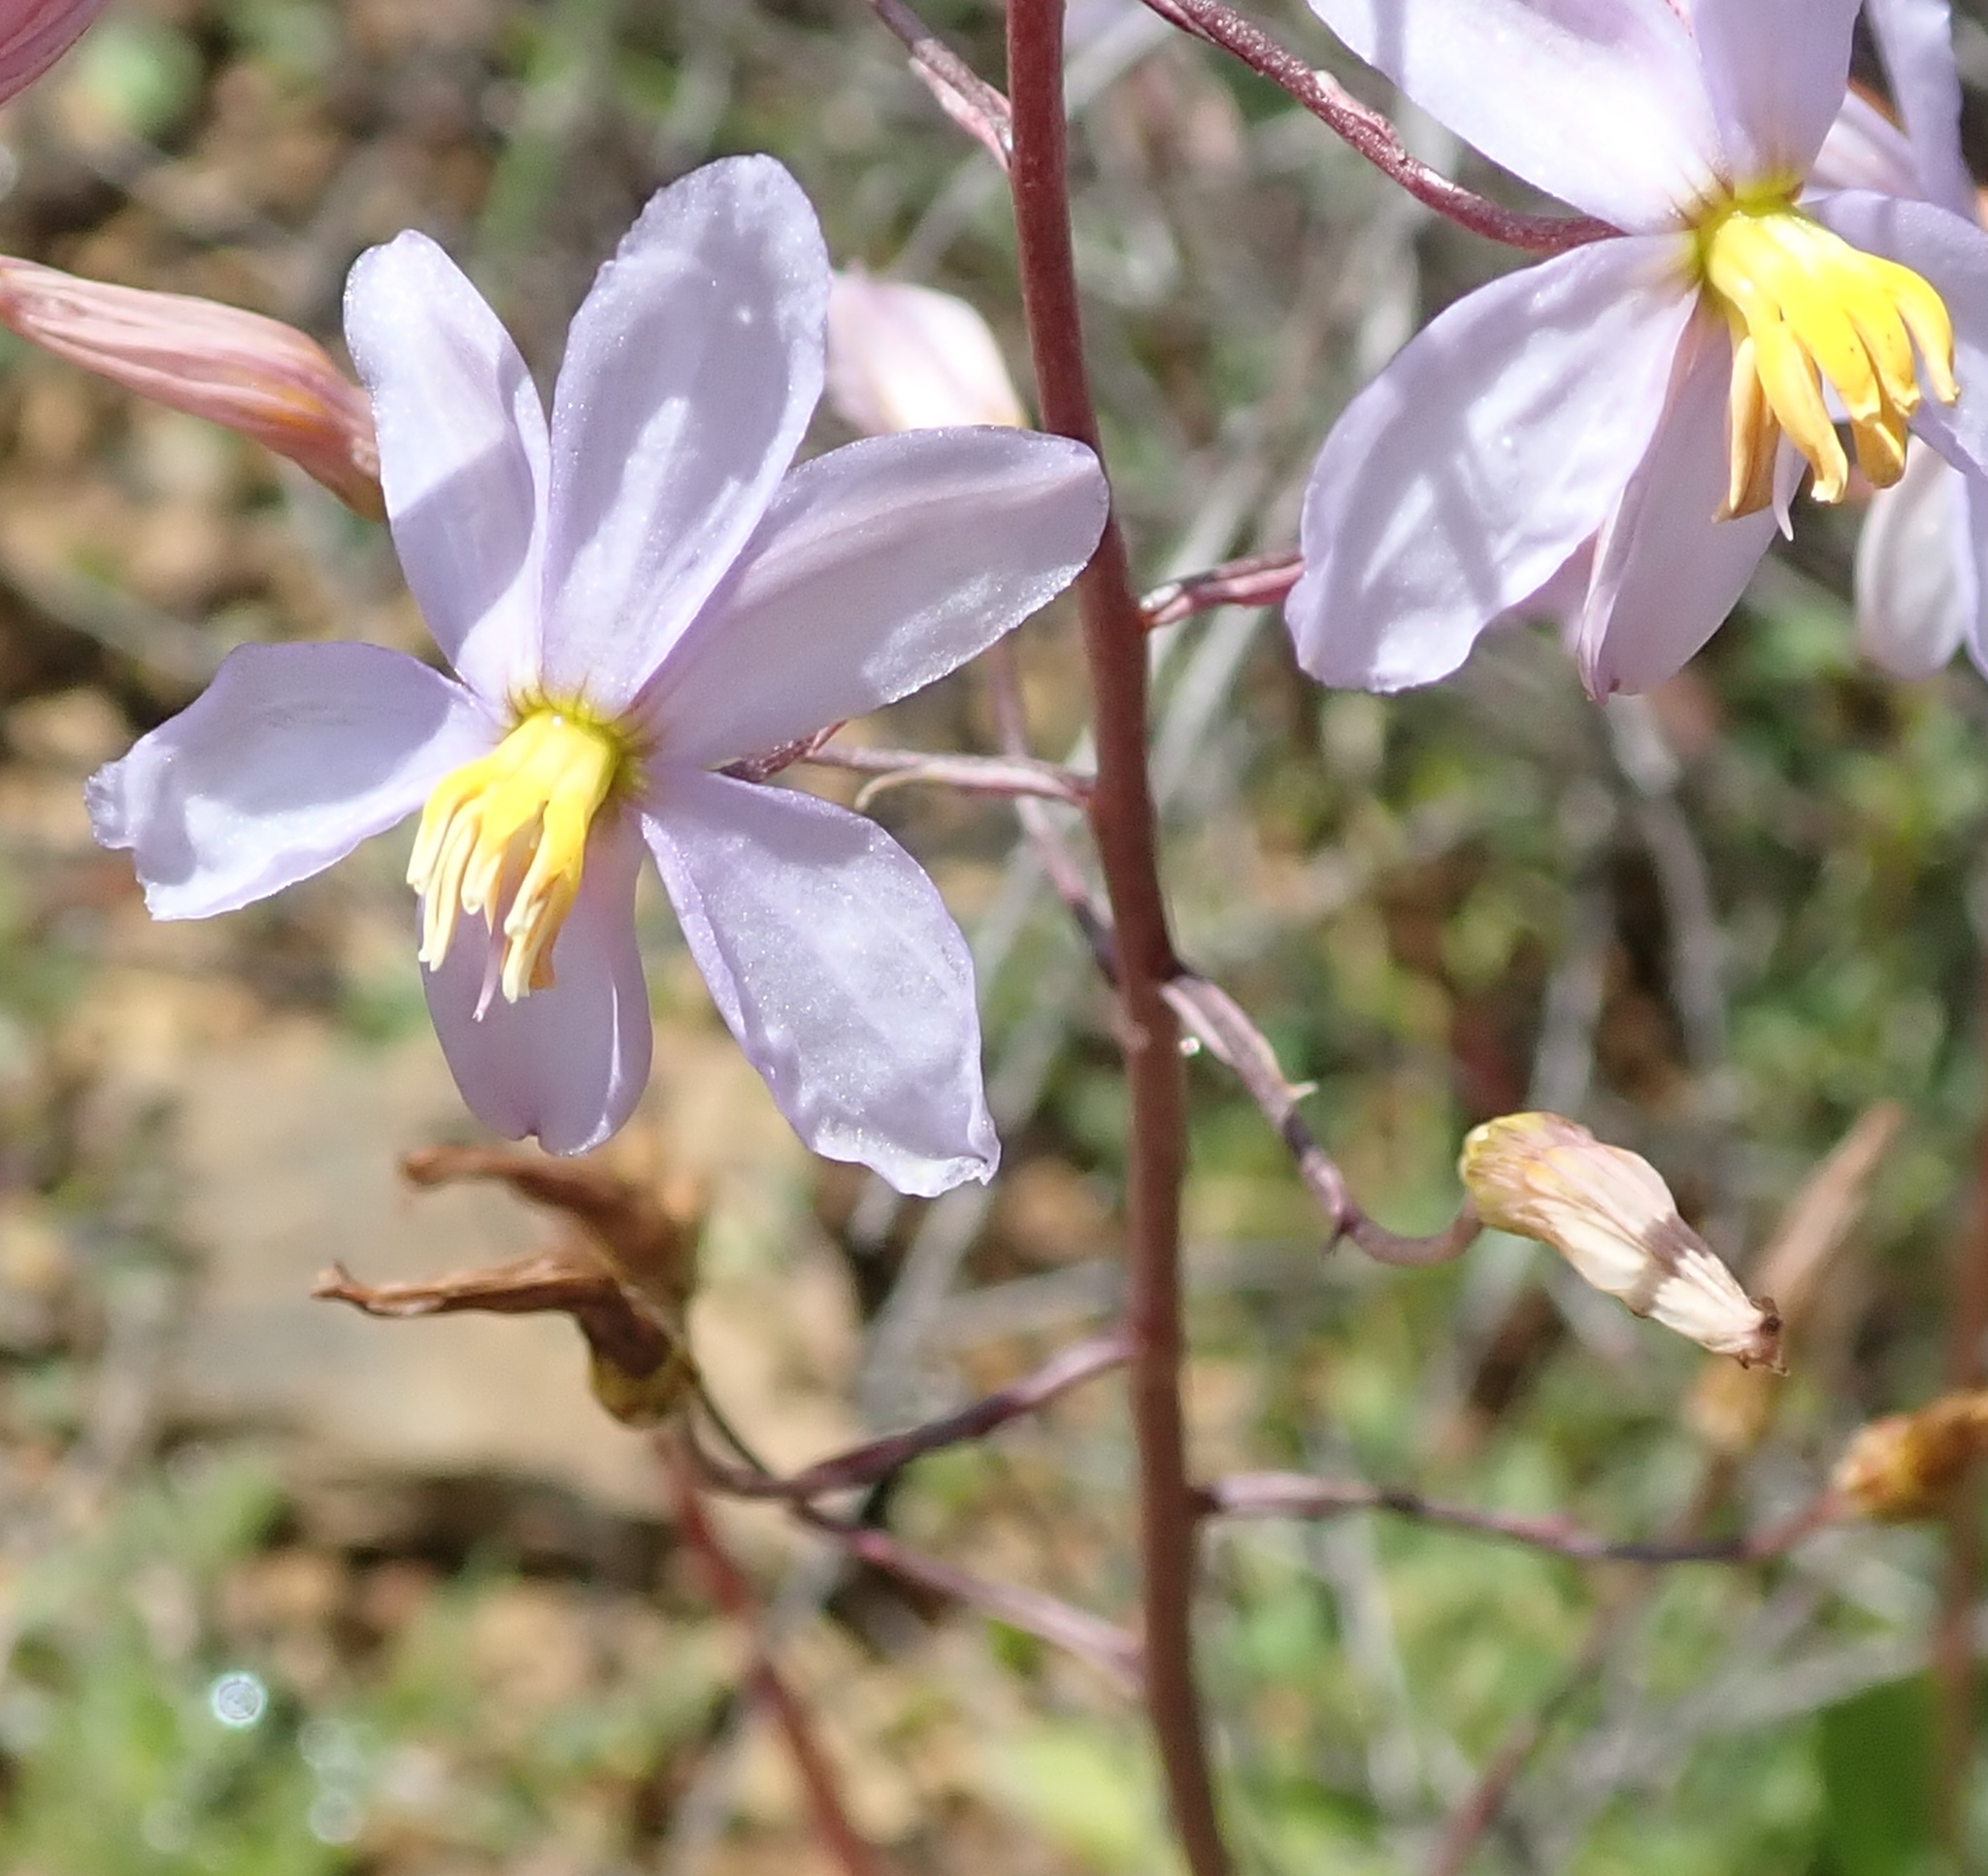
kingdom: Plantae
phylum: Tracheophyta
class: Liliopsida
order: Asparagales
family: Tecophilaeaceae
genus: Cyanella
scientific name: Cyanella hyacinthoides
